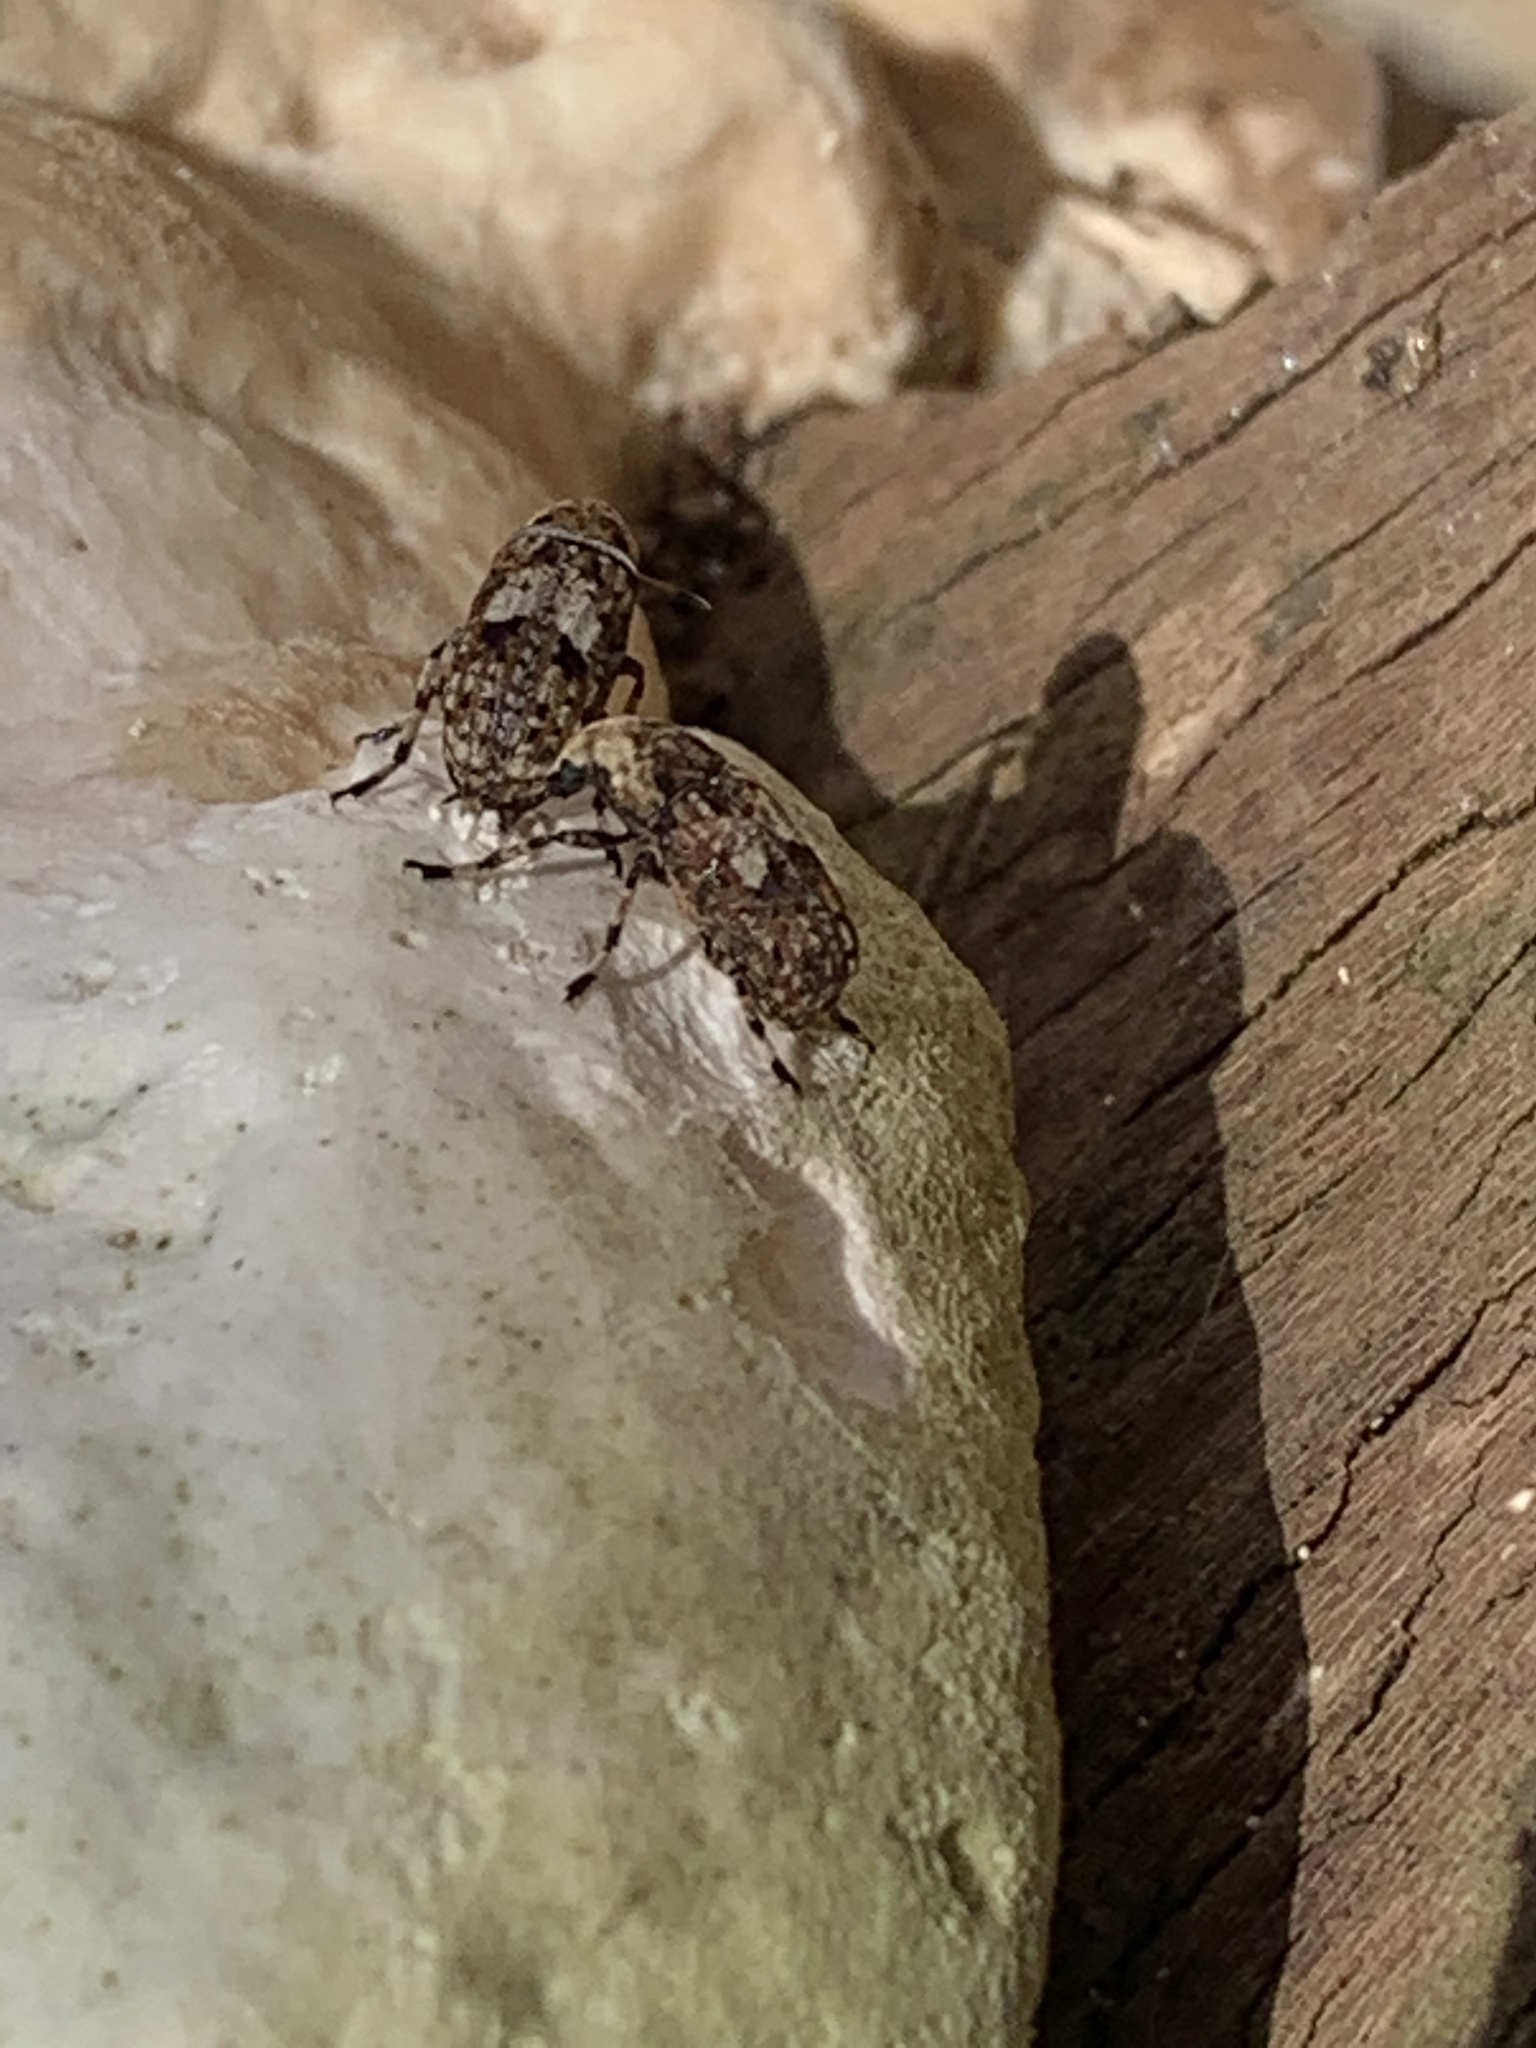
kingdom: Animalia
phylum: Arthropoda
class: Insecta
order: Coleoptera
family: Anthribidae
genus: Euparius
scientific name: Euparius marmoreus
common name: Marbled fungus weevil
